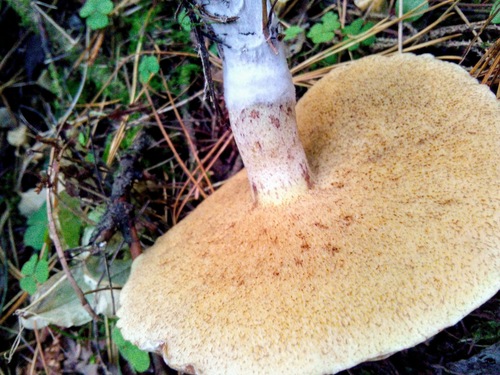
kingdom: Fungi
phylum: Basidiomycota
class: Agaricomycetes
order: Boletales
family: Suillaceae
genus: Suillus
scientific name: Suillus placidus
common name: Slippery white bolete
